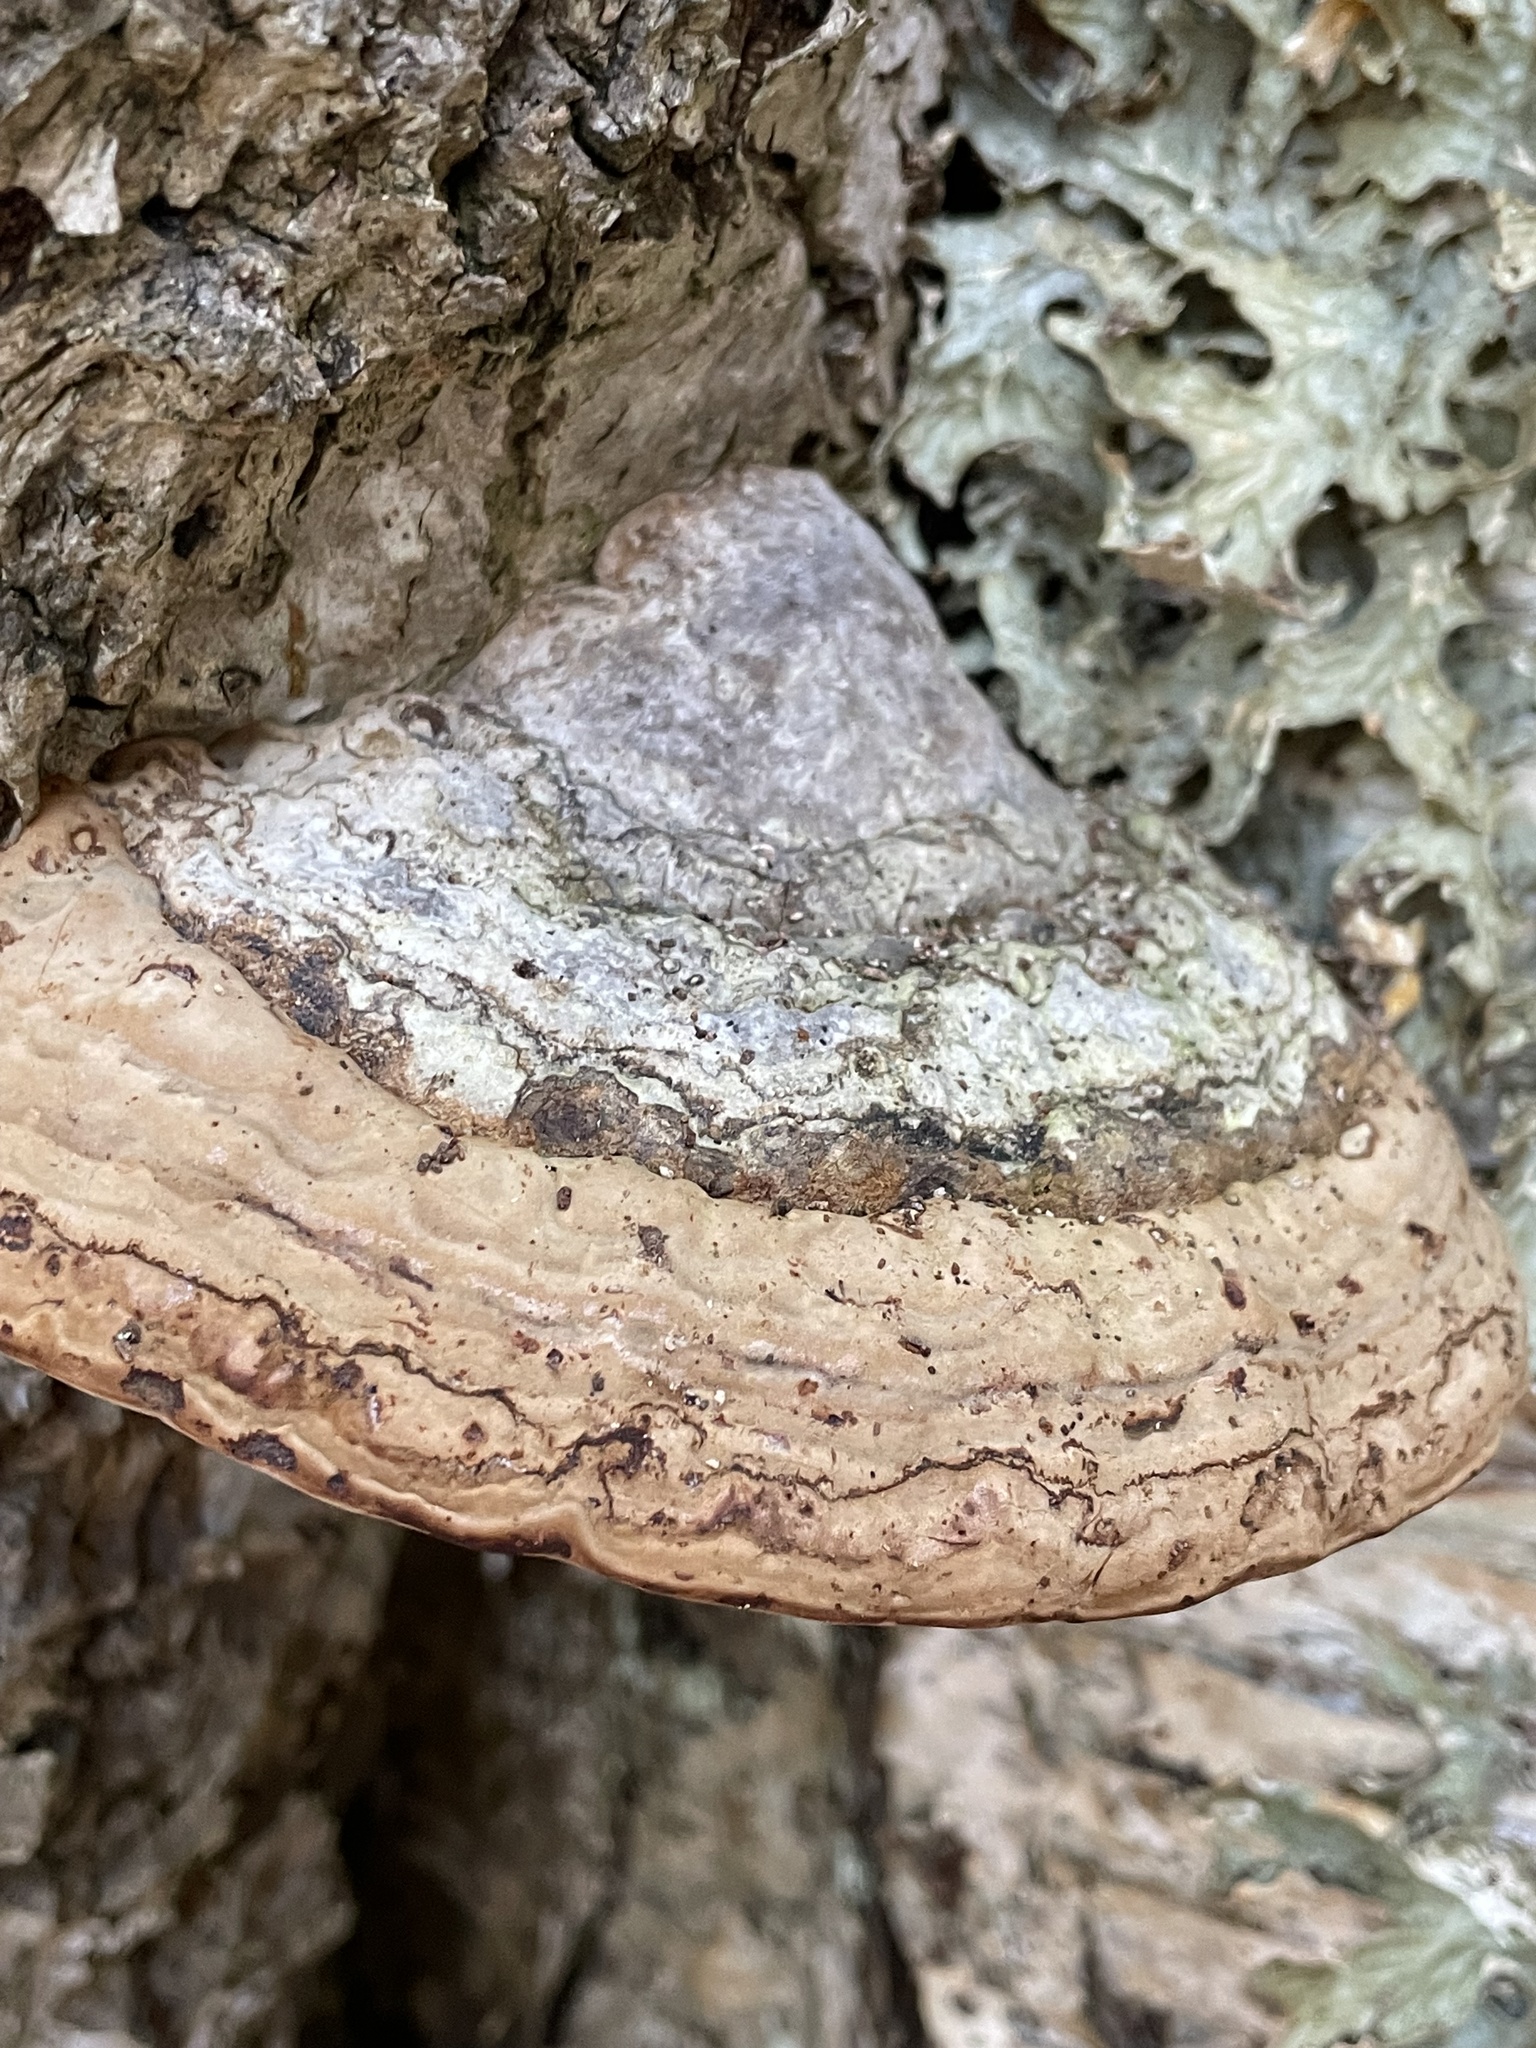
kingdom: Fungi
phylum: Basidiomycota
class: Agaricomycetes
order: Polyporales
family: Polyporaceae
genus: Fomes
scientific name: Fomes fomentarius
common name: Hoof fungus
